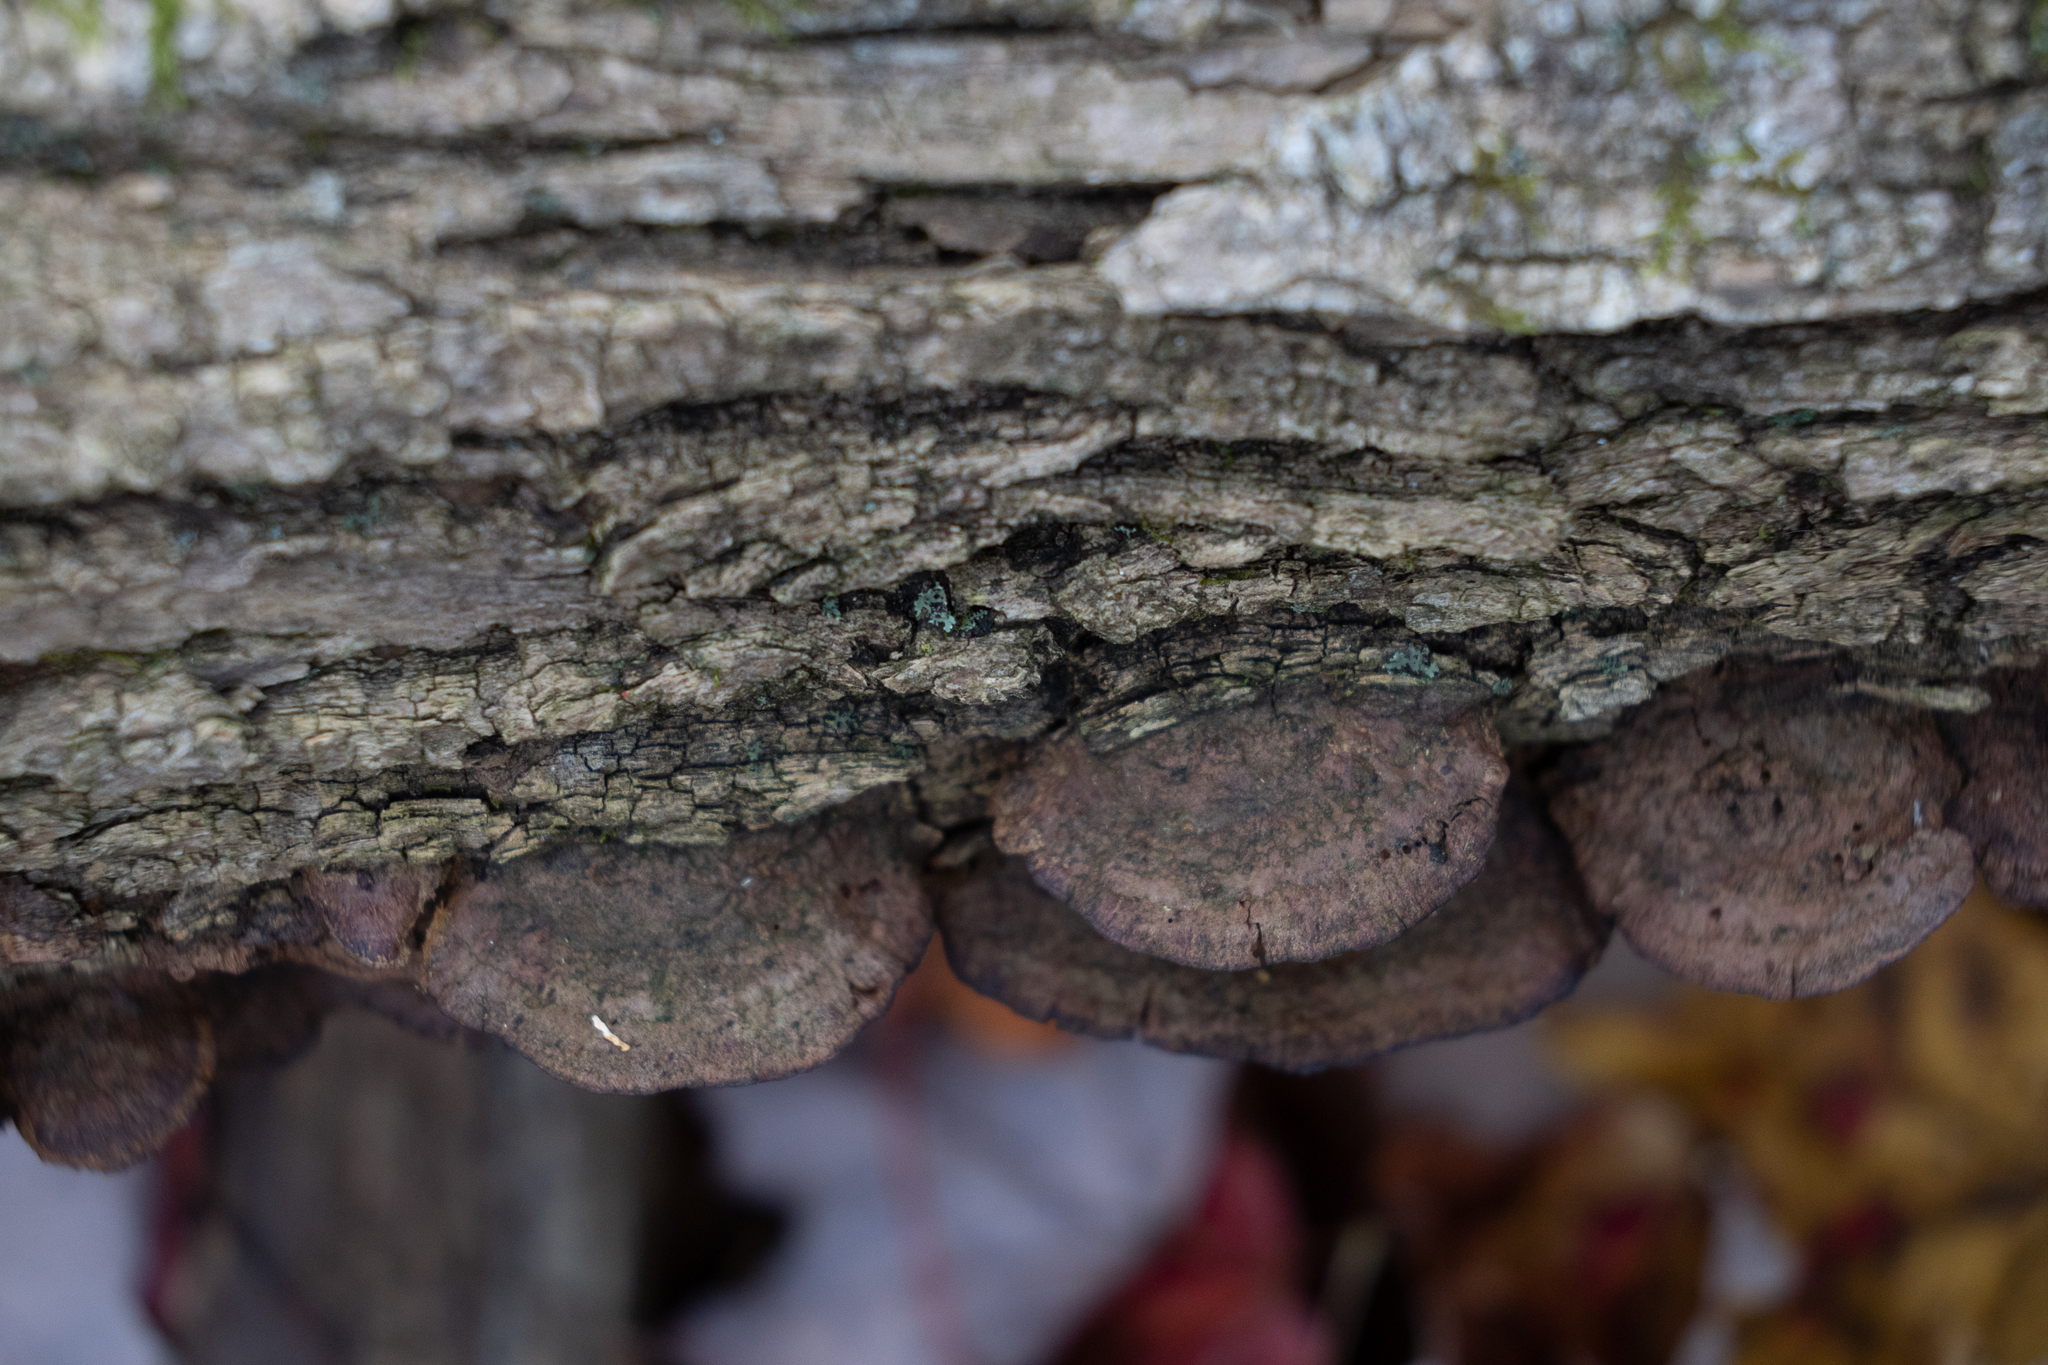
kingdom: Fungi
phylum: Basidiomycota
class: Agaricomycetes
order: Hymenochaetales
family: Hymenochaetaceae
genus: Phellinus
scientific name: Phellinus gilvus
